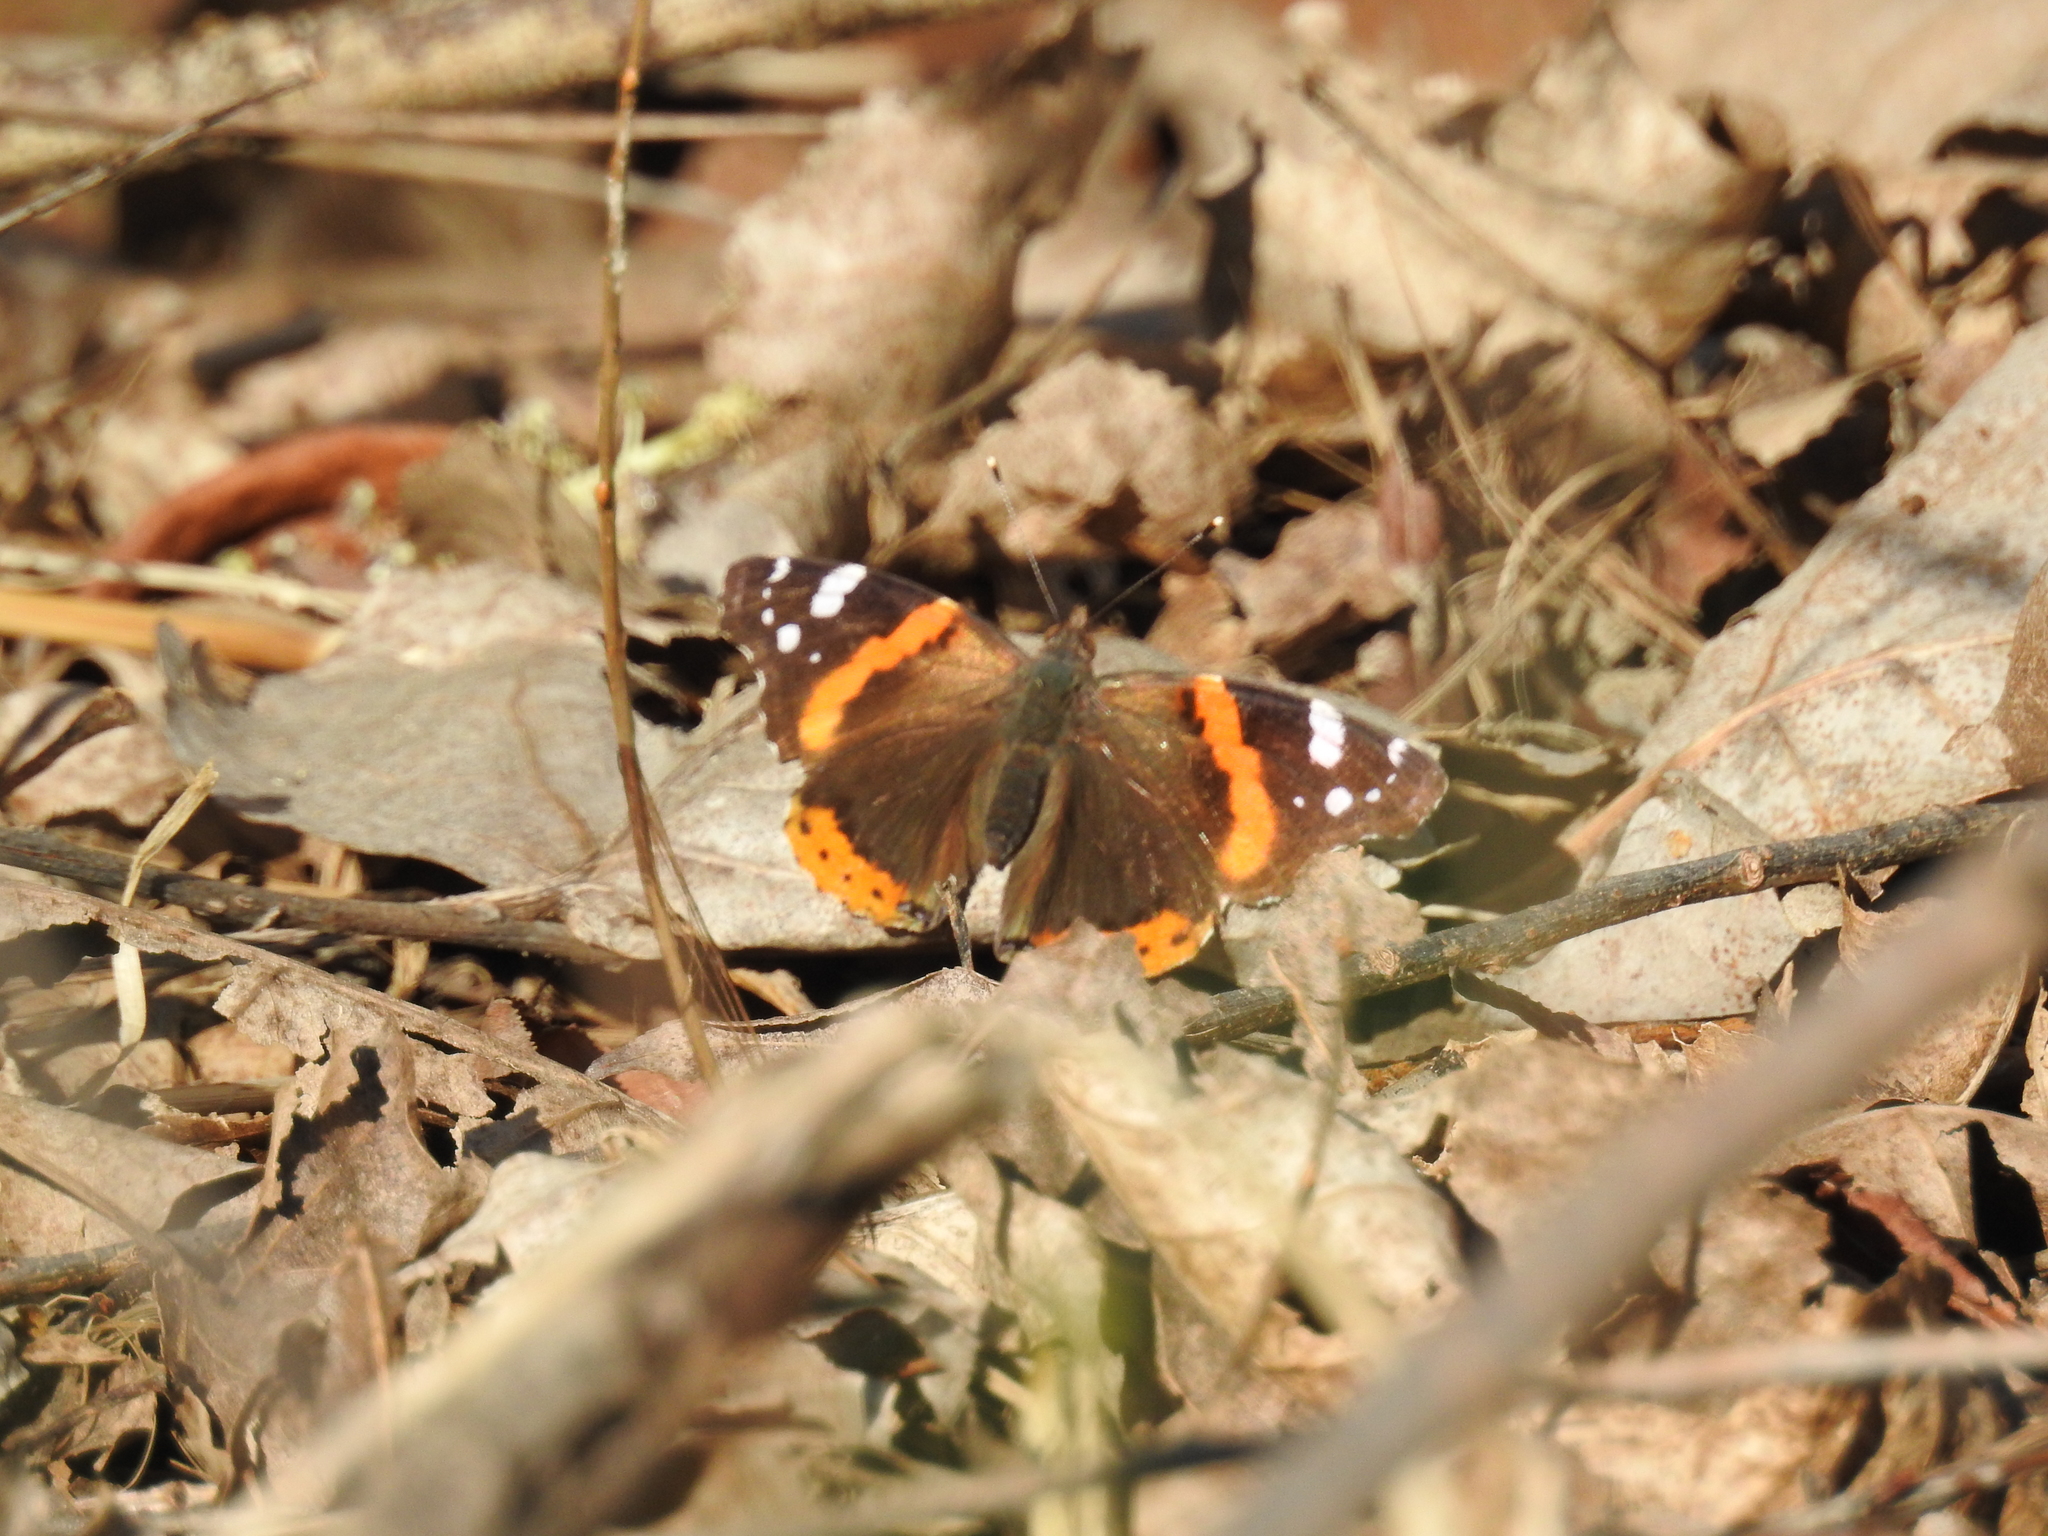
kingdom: Animalia
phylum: Arthropoda
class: Insecta
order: Lepidoptera
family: Nymphalidae
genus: Vanessa
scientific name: Vanessa atalanta
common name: Red admiral
